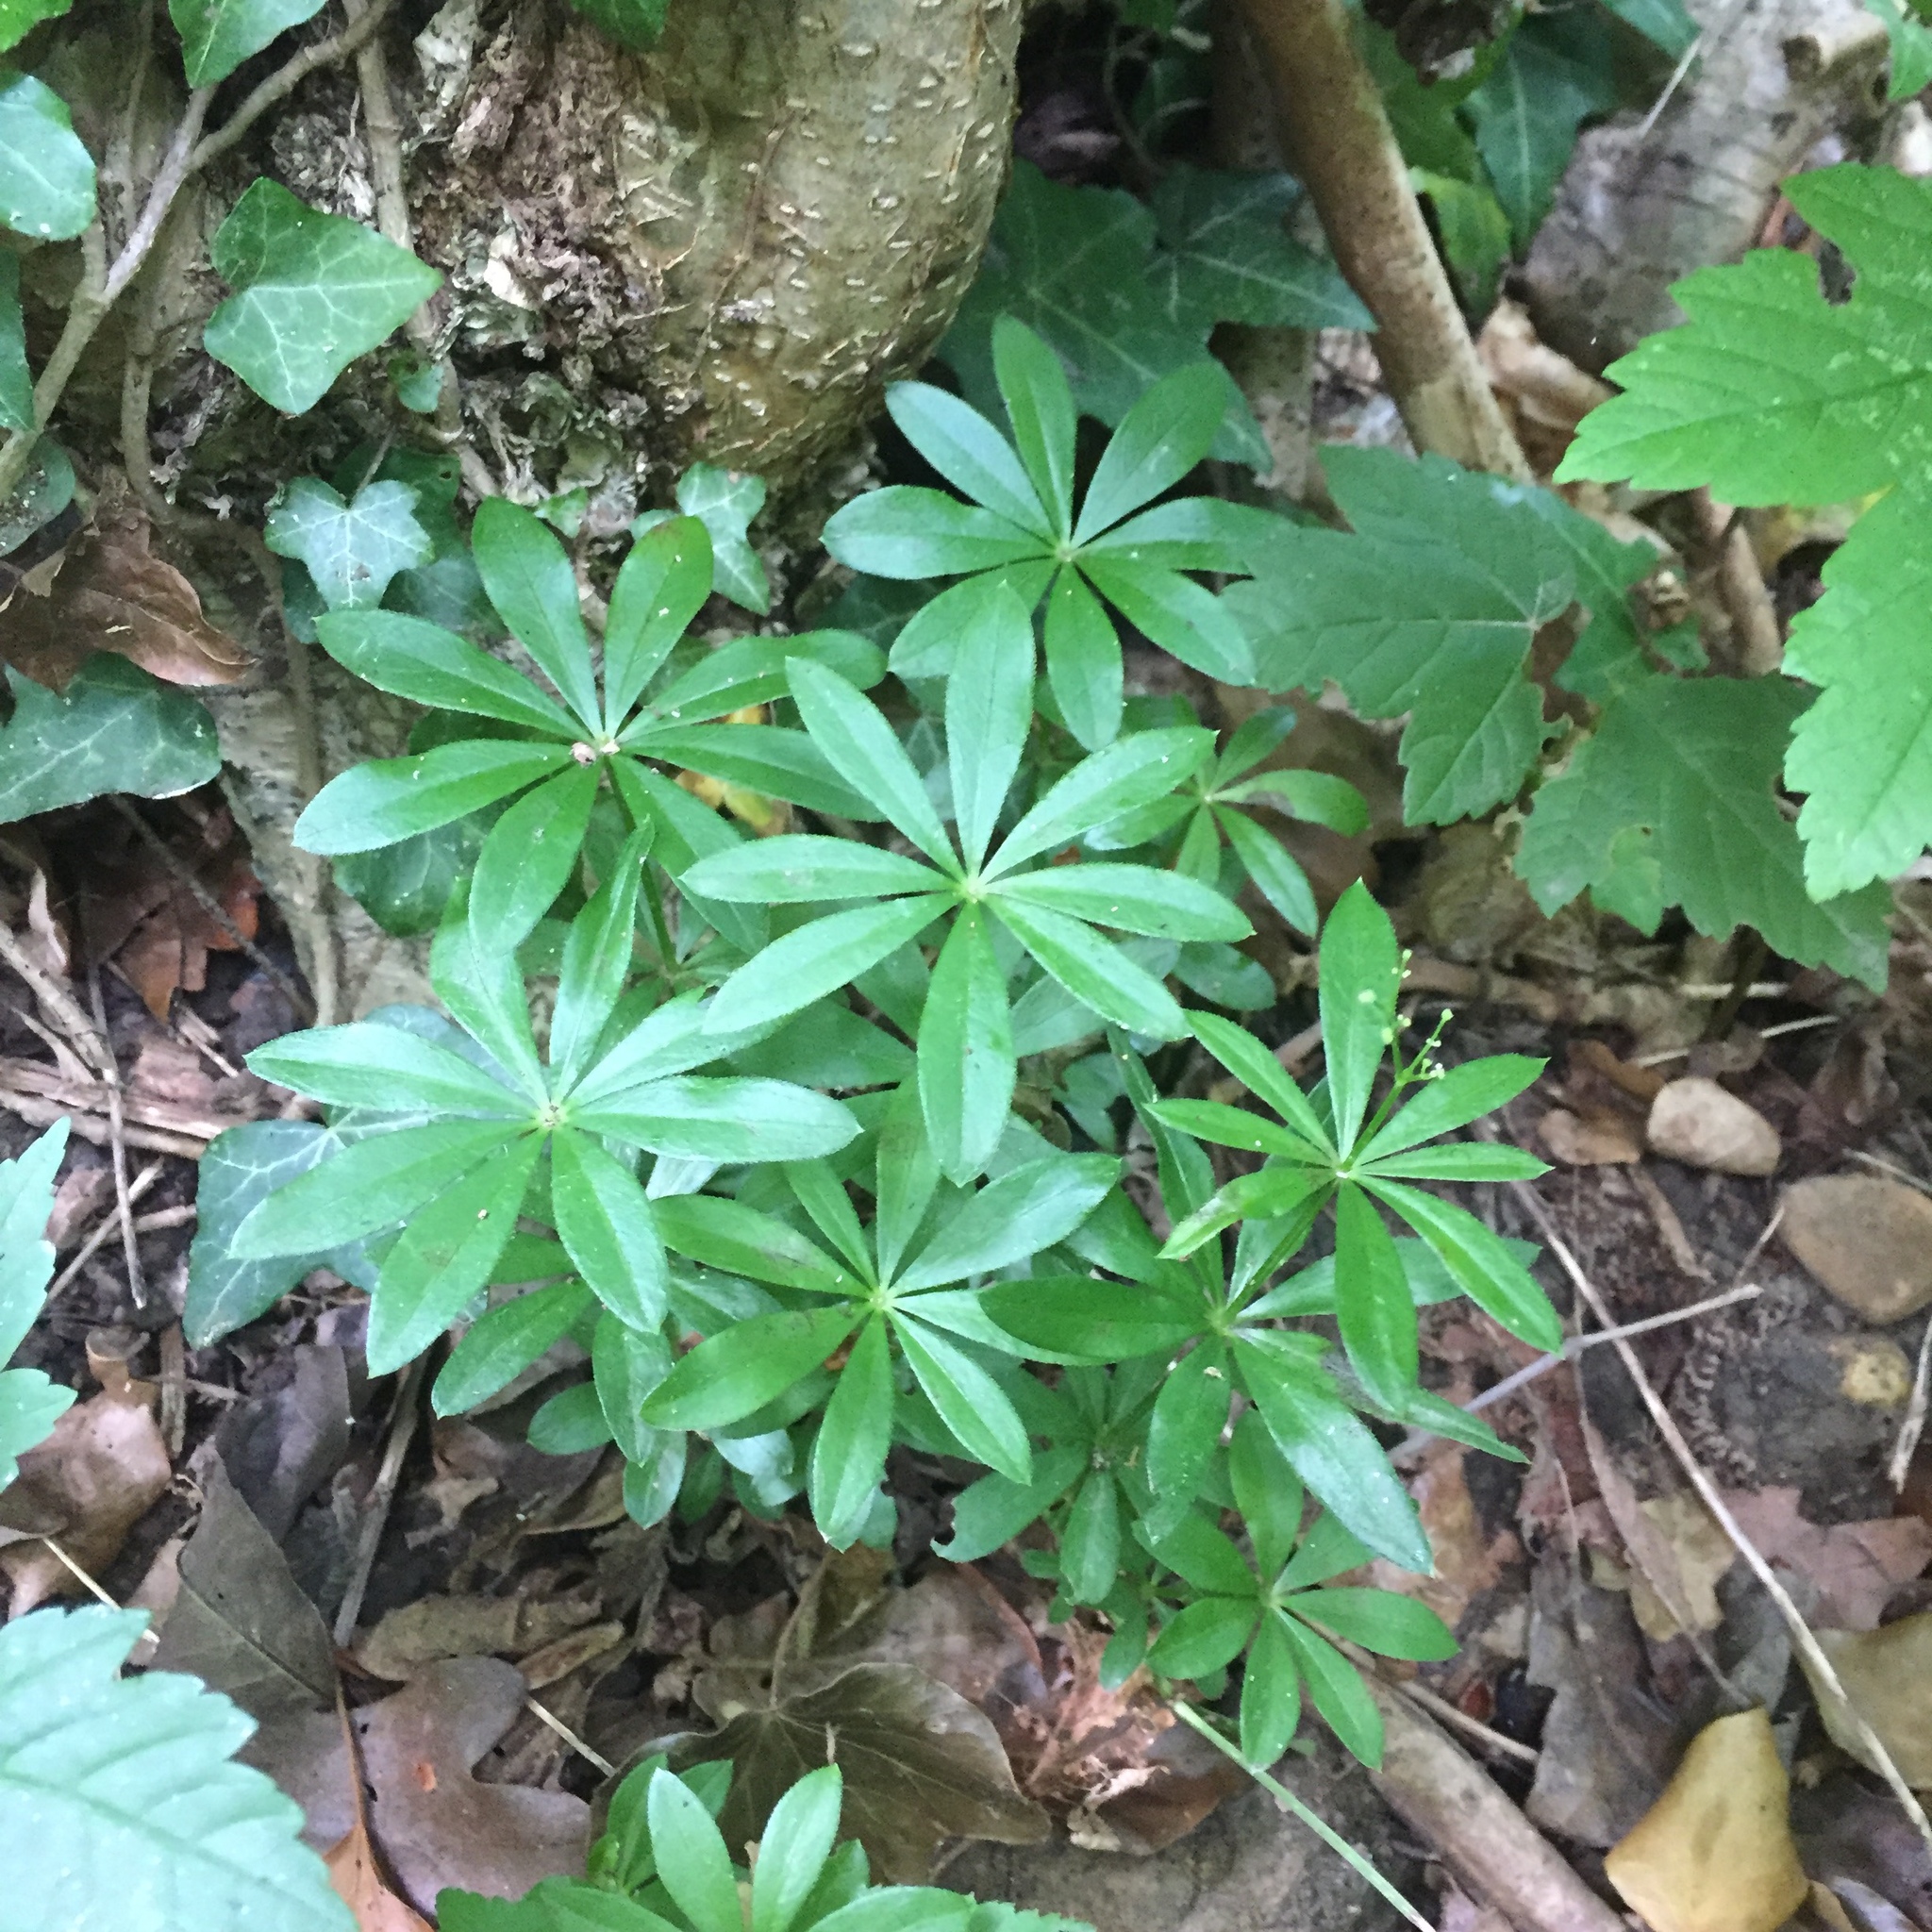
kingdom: Plantae
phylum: Tracheophyta
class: Magnoliopsida
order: Gentianales
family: Rubiaceae
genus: Galium
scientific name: Galium odoratum
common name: Sweet woodruff
